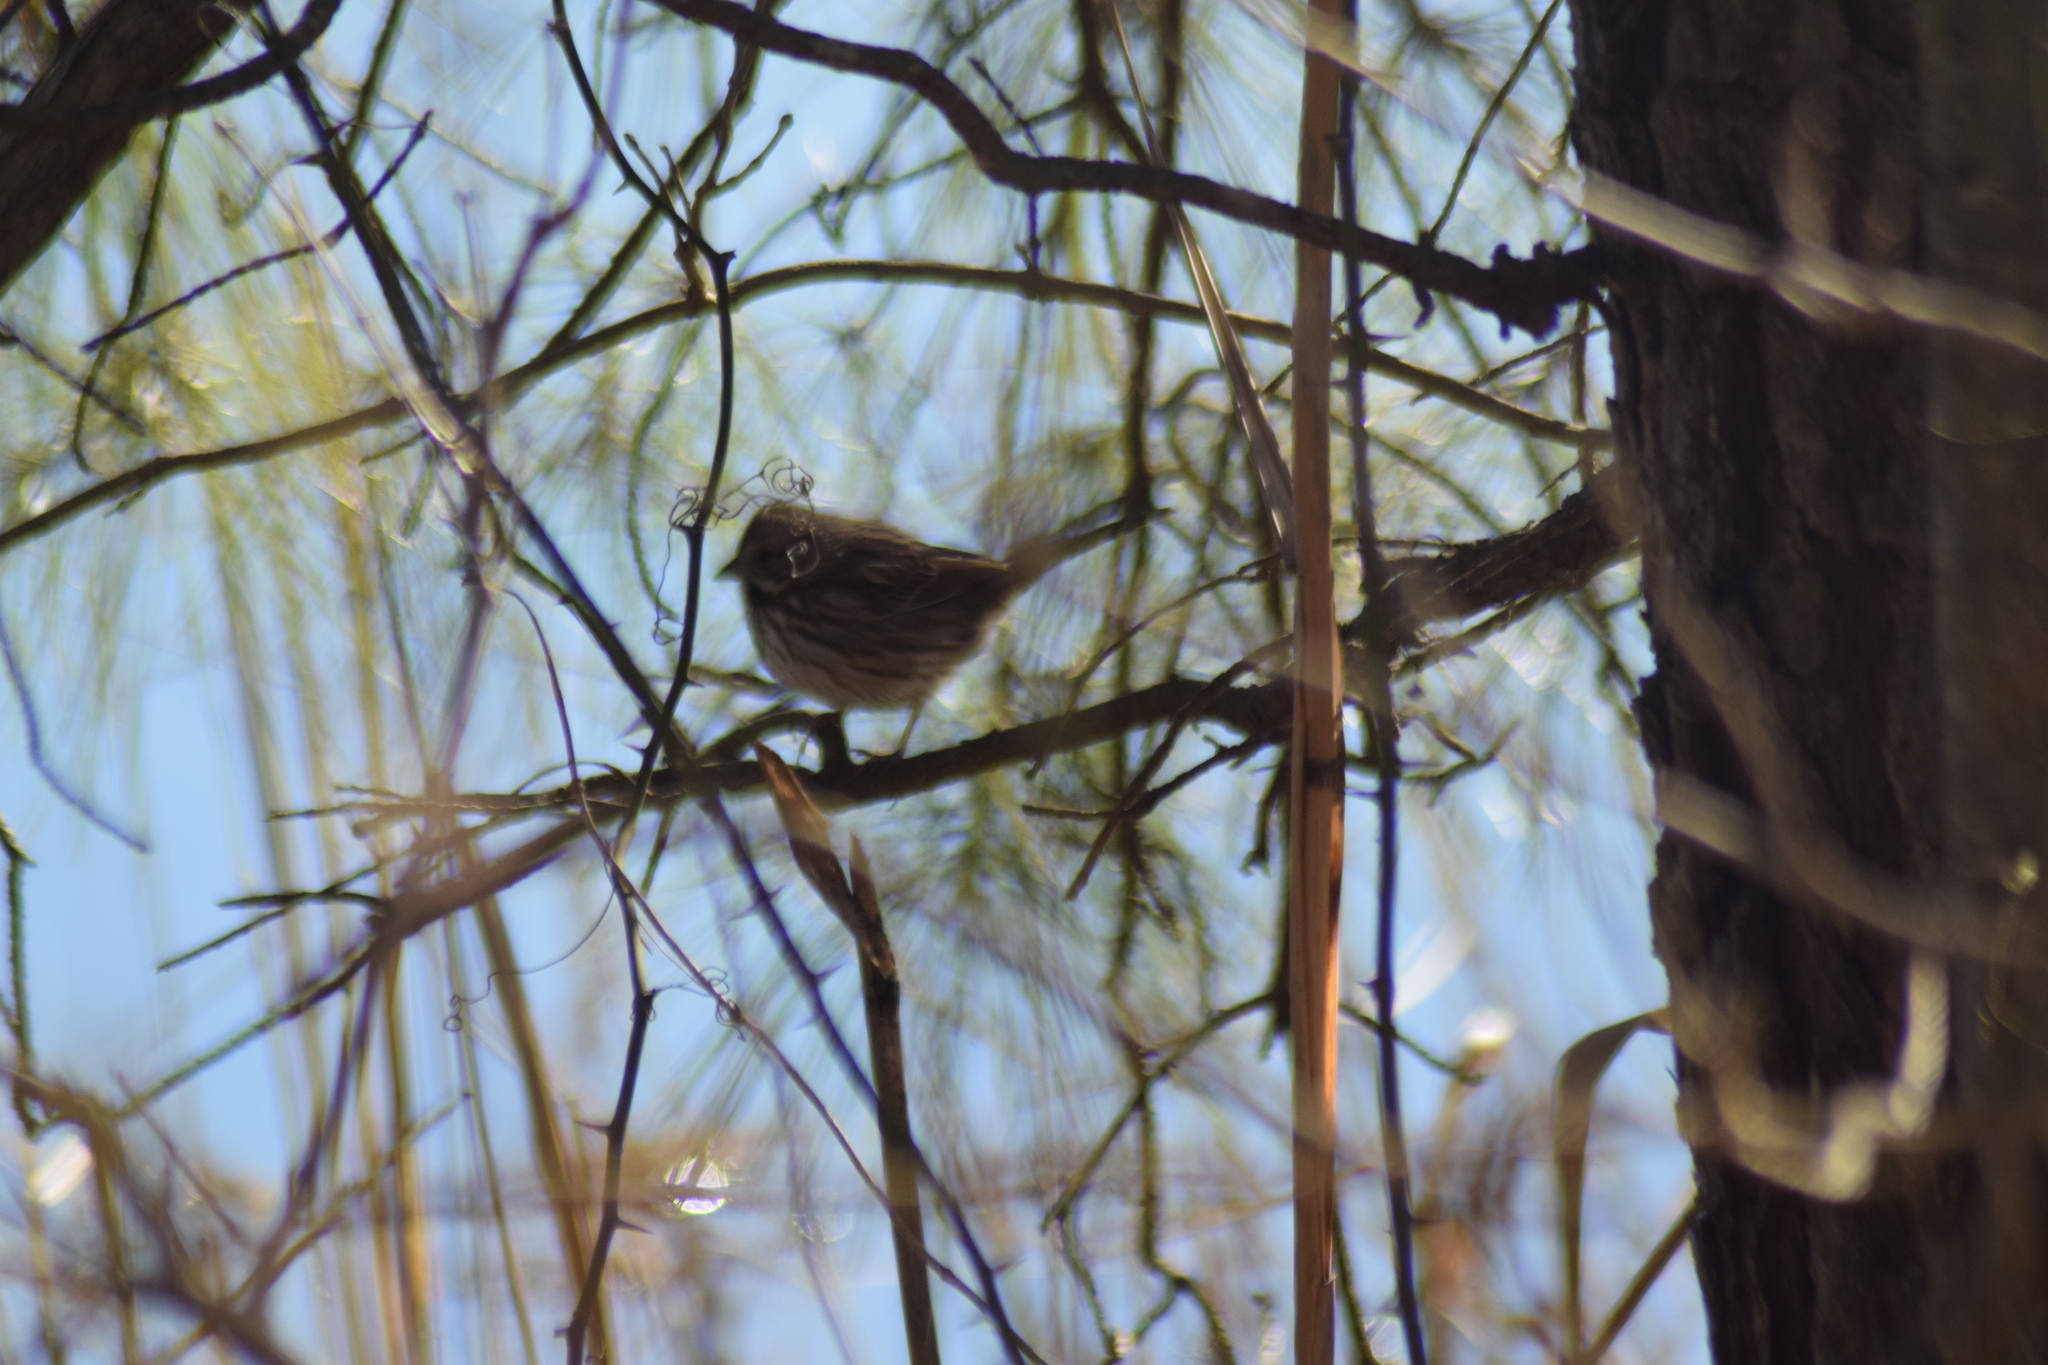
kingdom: Animalia
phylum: Chordata
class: Aves
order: Passeriformes
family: Passerellidae
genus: Melospiza
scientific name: Melospiza melodia
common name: Song sparrow
